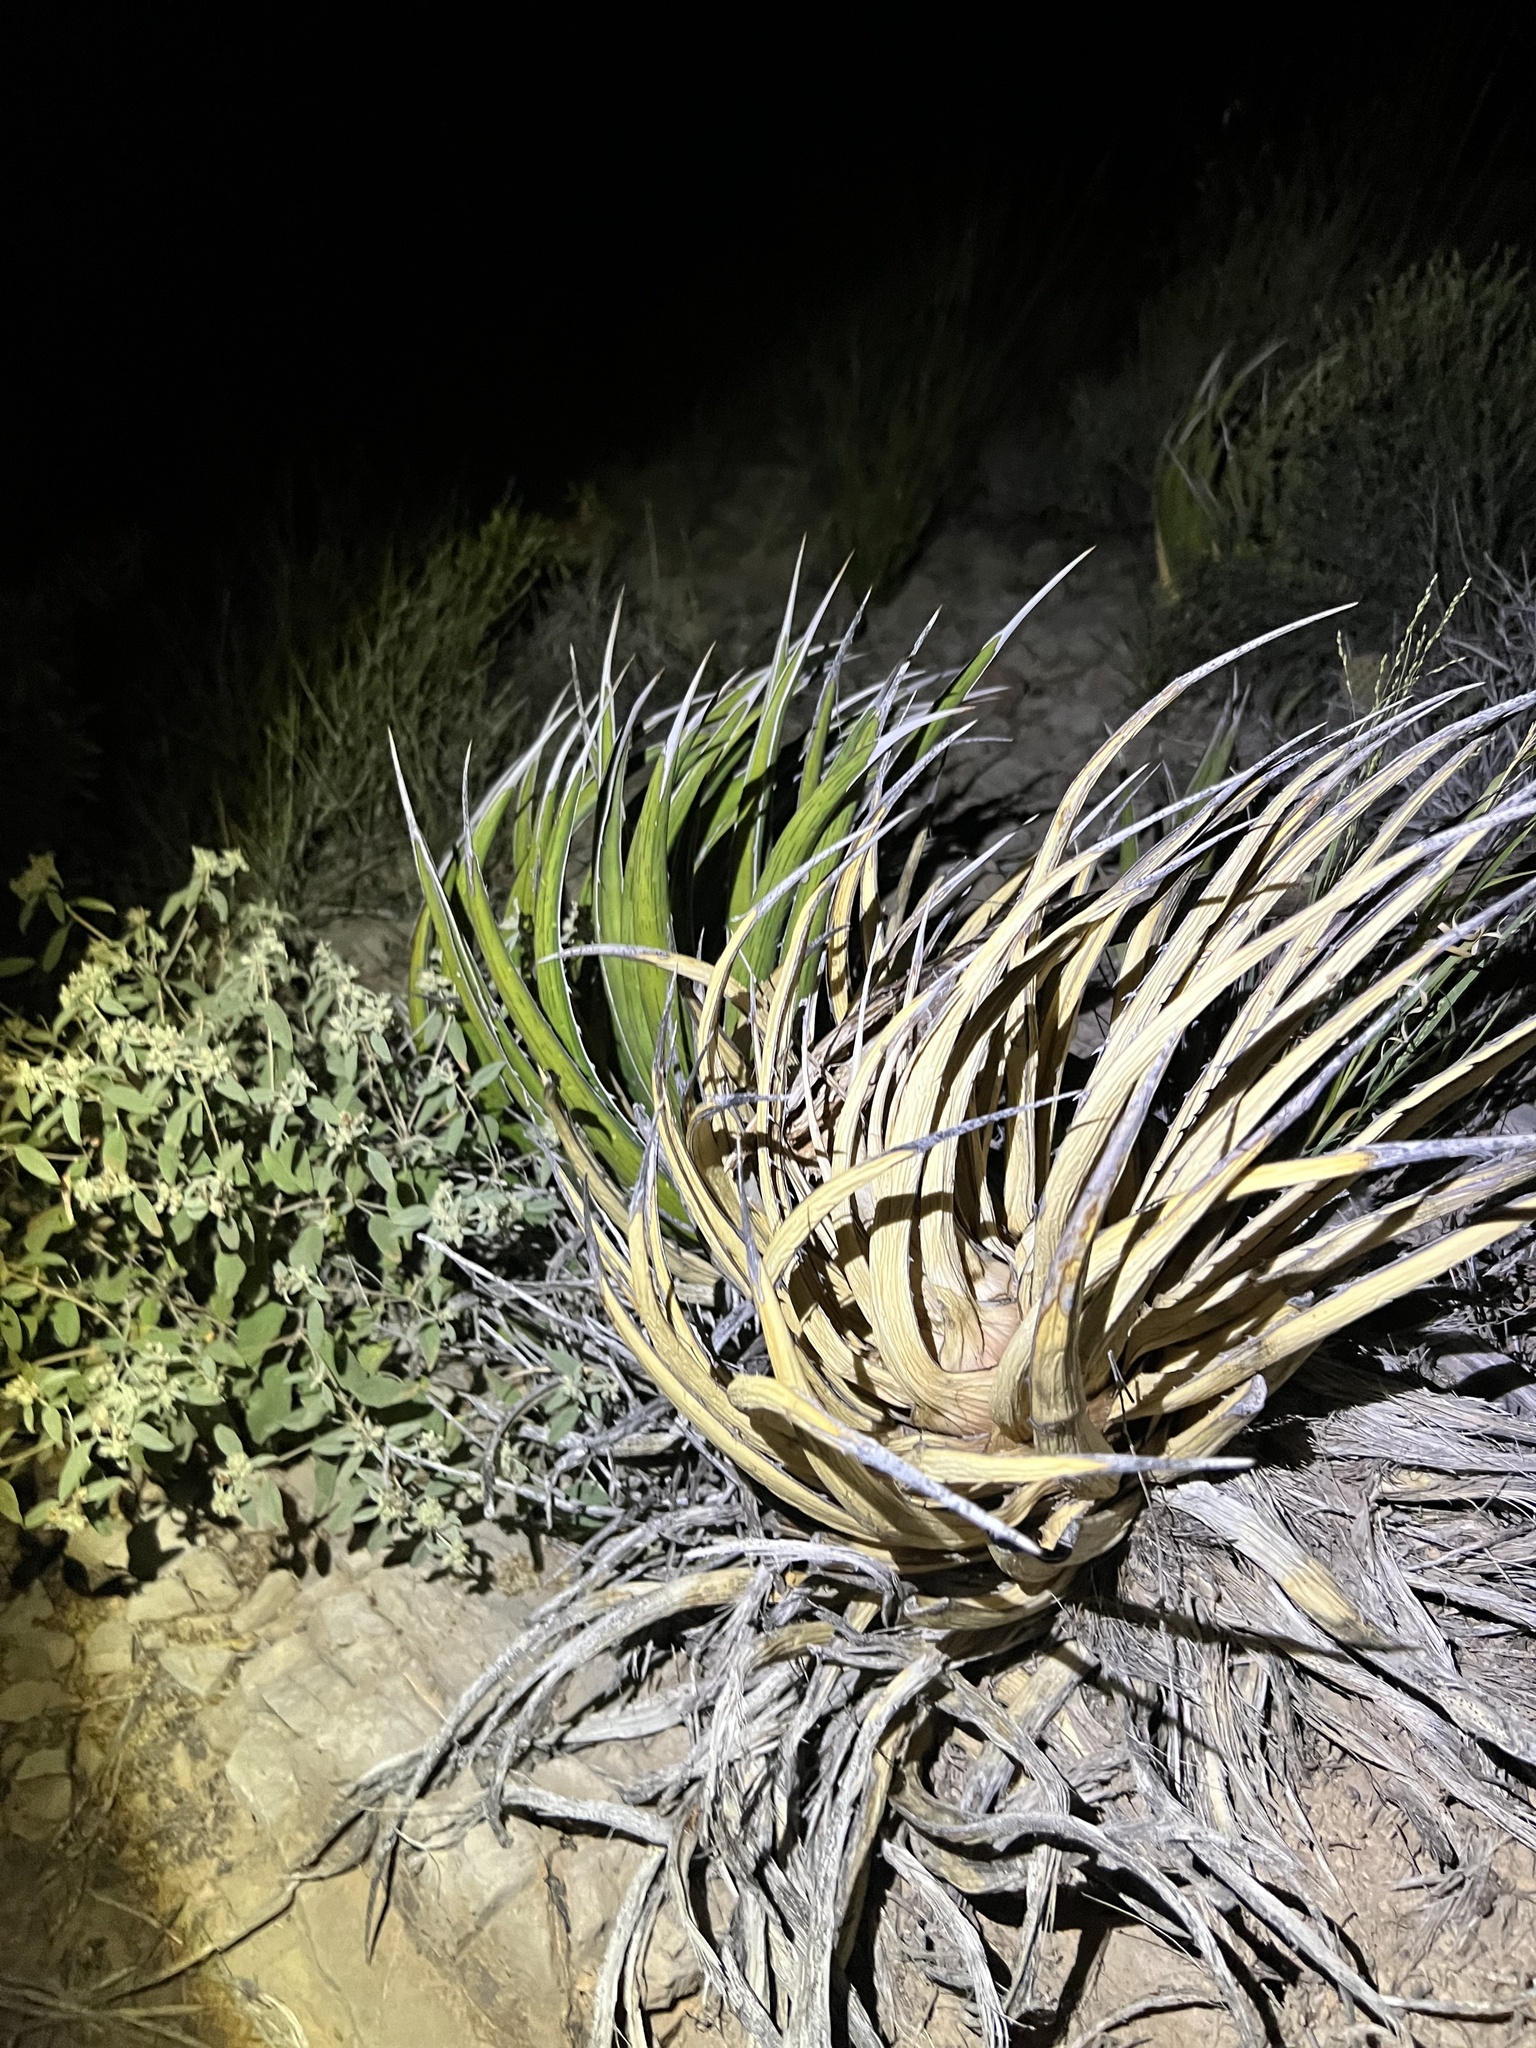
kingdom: Plantae
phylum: Tracheophyta
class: Liliopsida
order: Asparagales
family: Asparagaceae
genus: Agave
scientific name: Agave lechuguilla
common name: Lecheguilla agave
